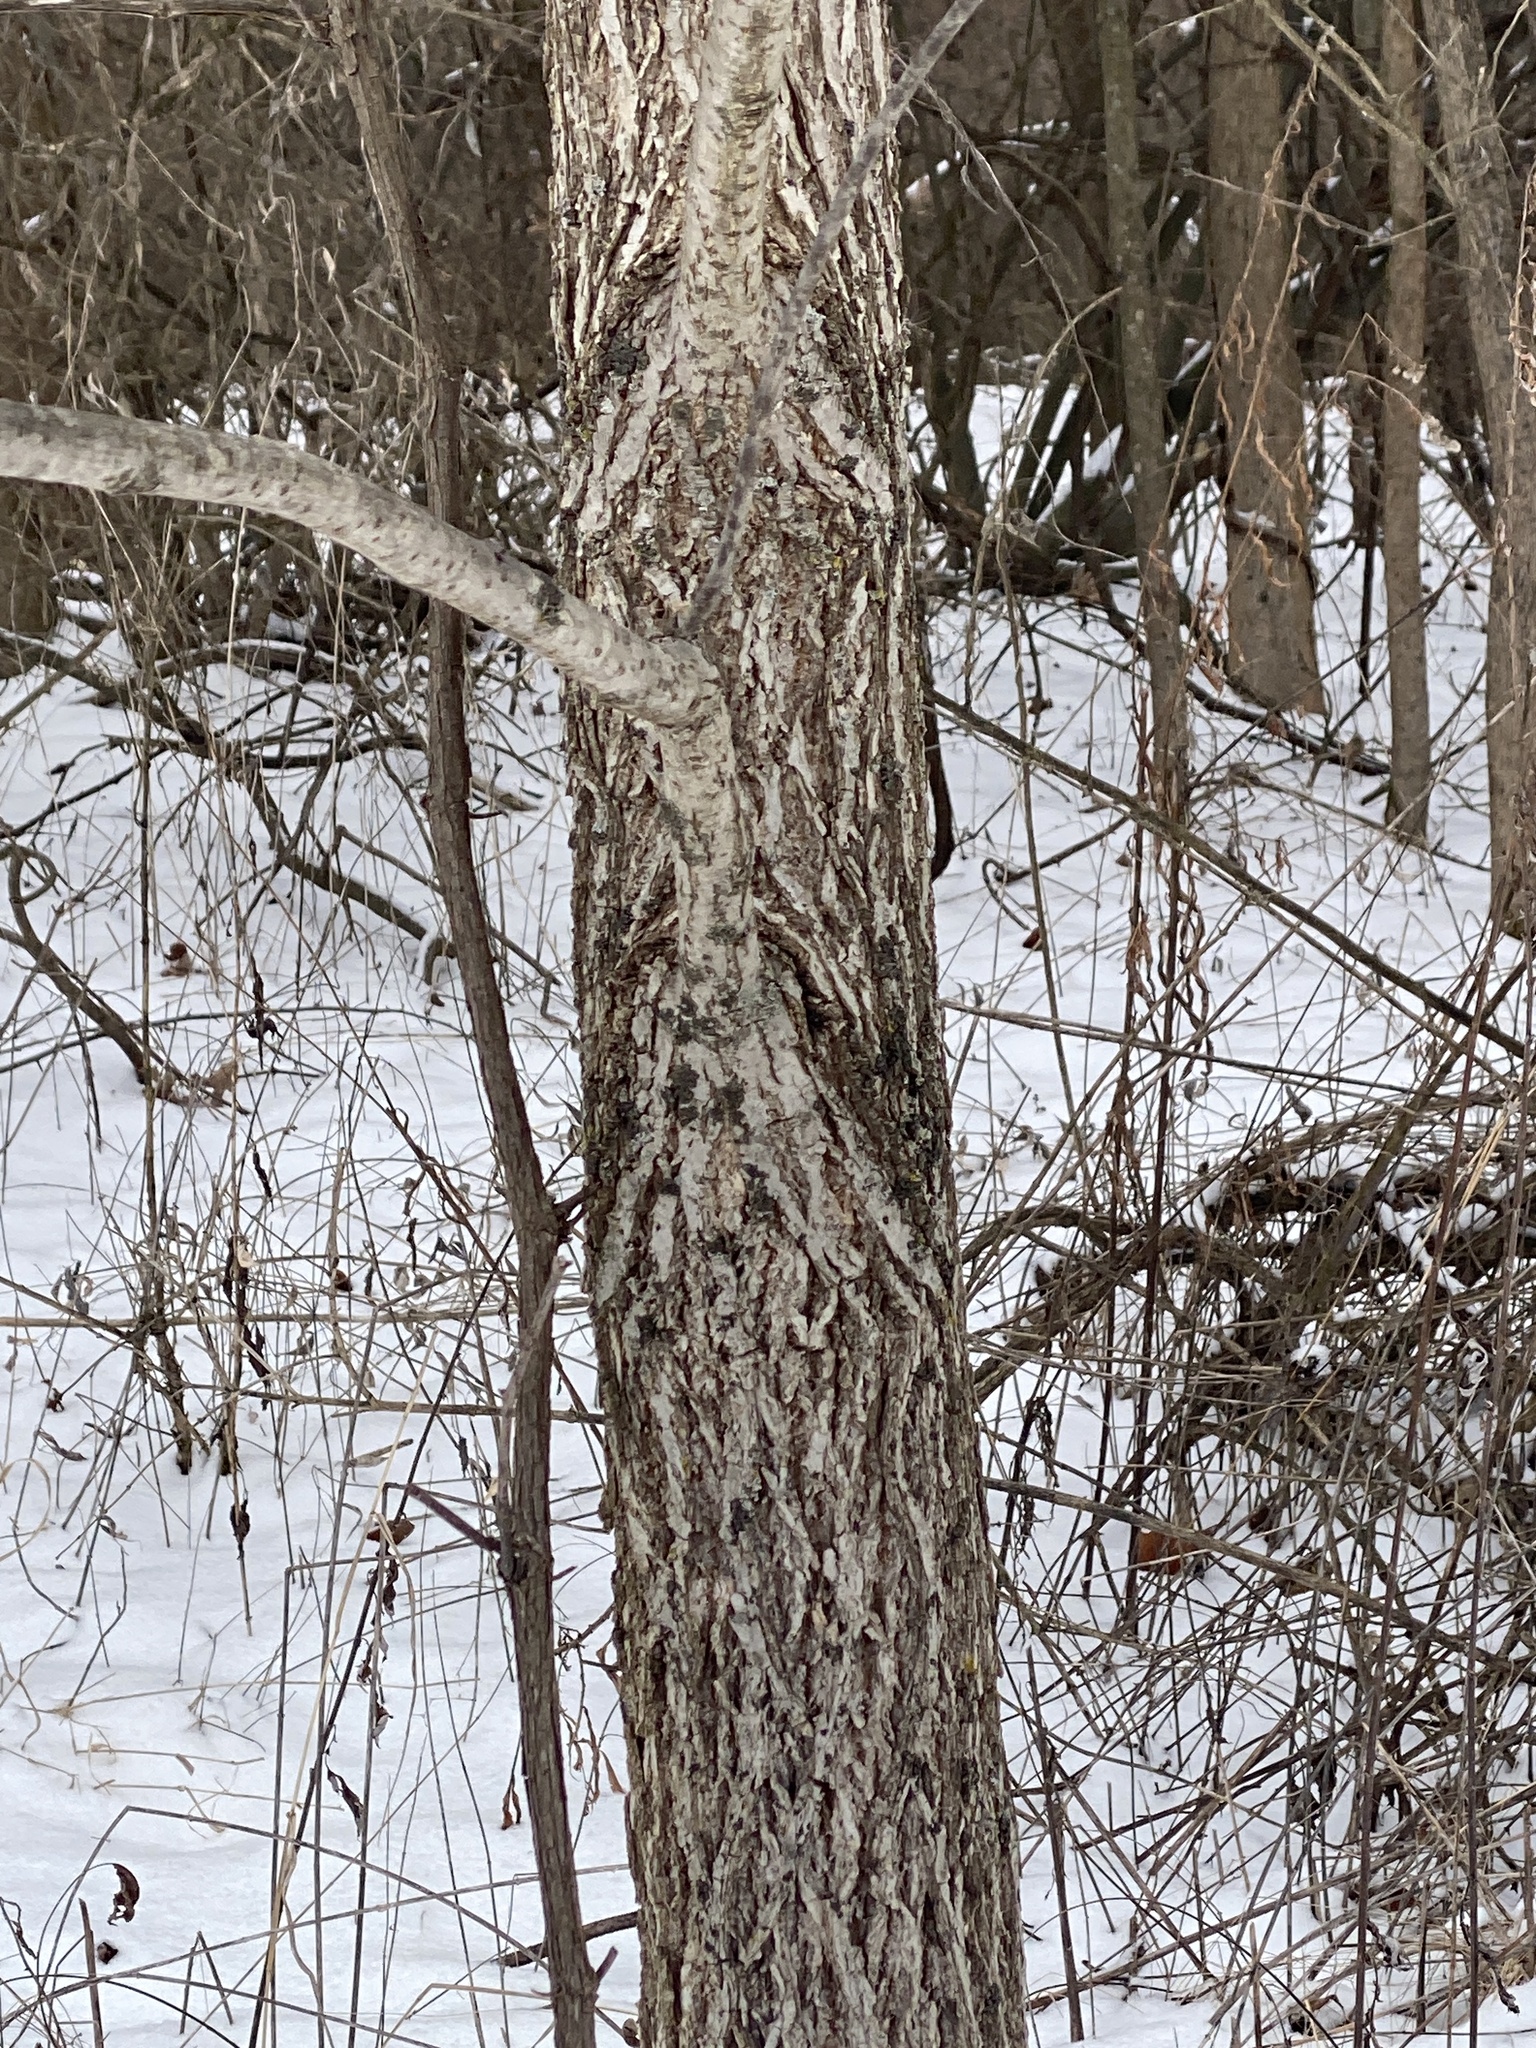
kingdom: Plantae
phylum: Tracheophyta
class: Magnoliopsida
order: Fagales
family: Juglandaceae
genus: Juglans
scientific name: Juglans nigra
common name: Black walnut
